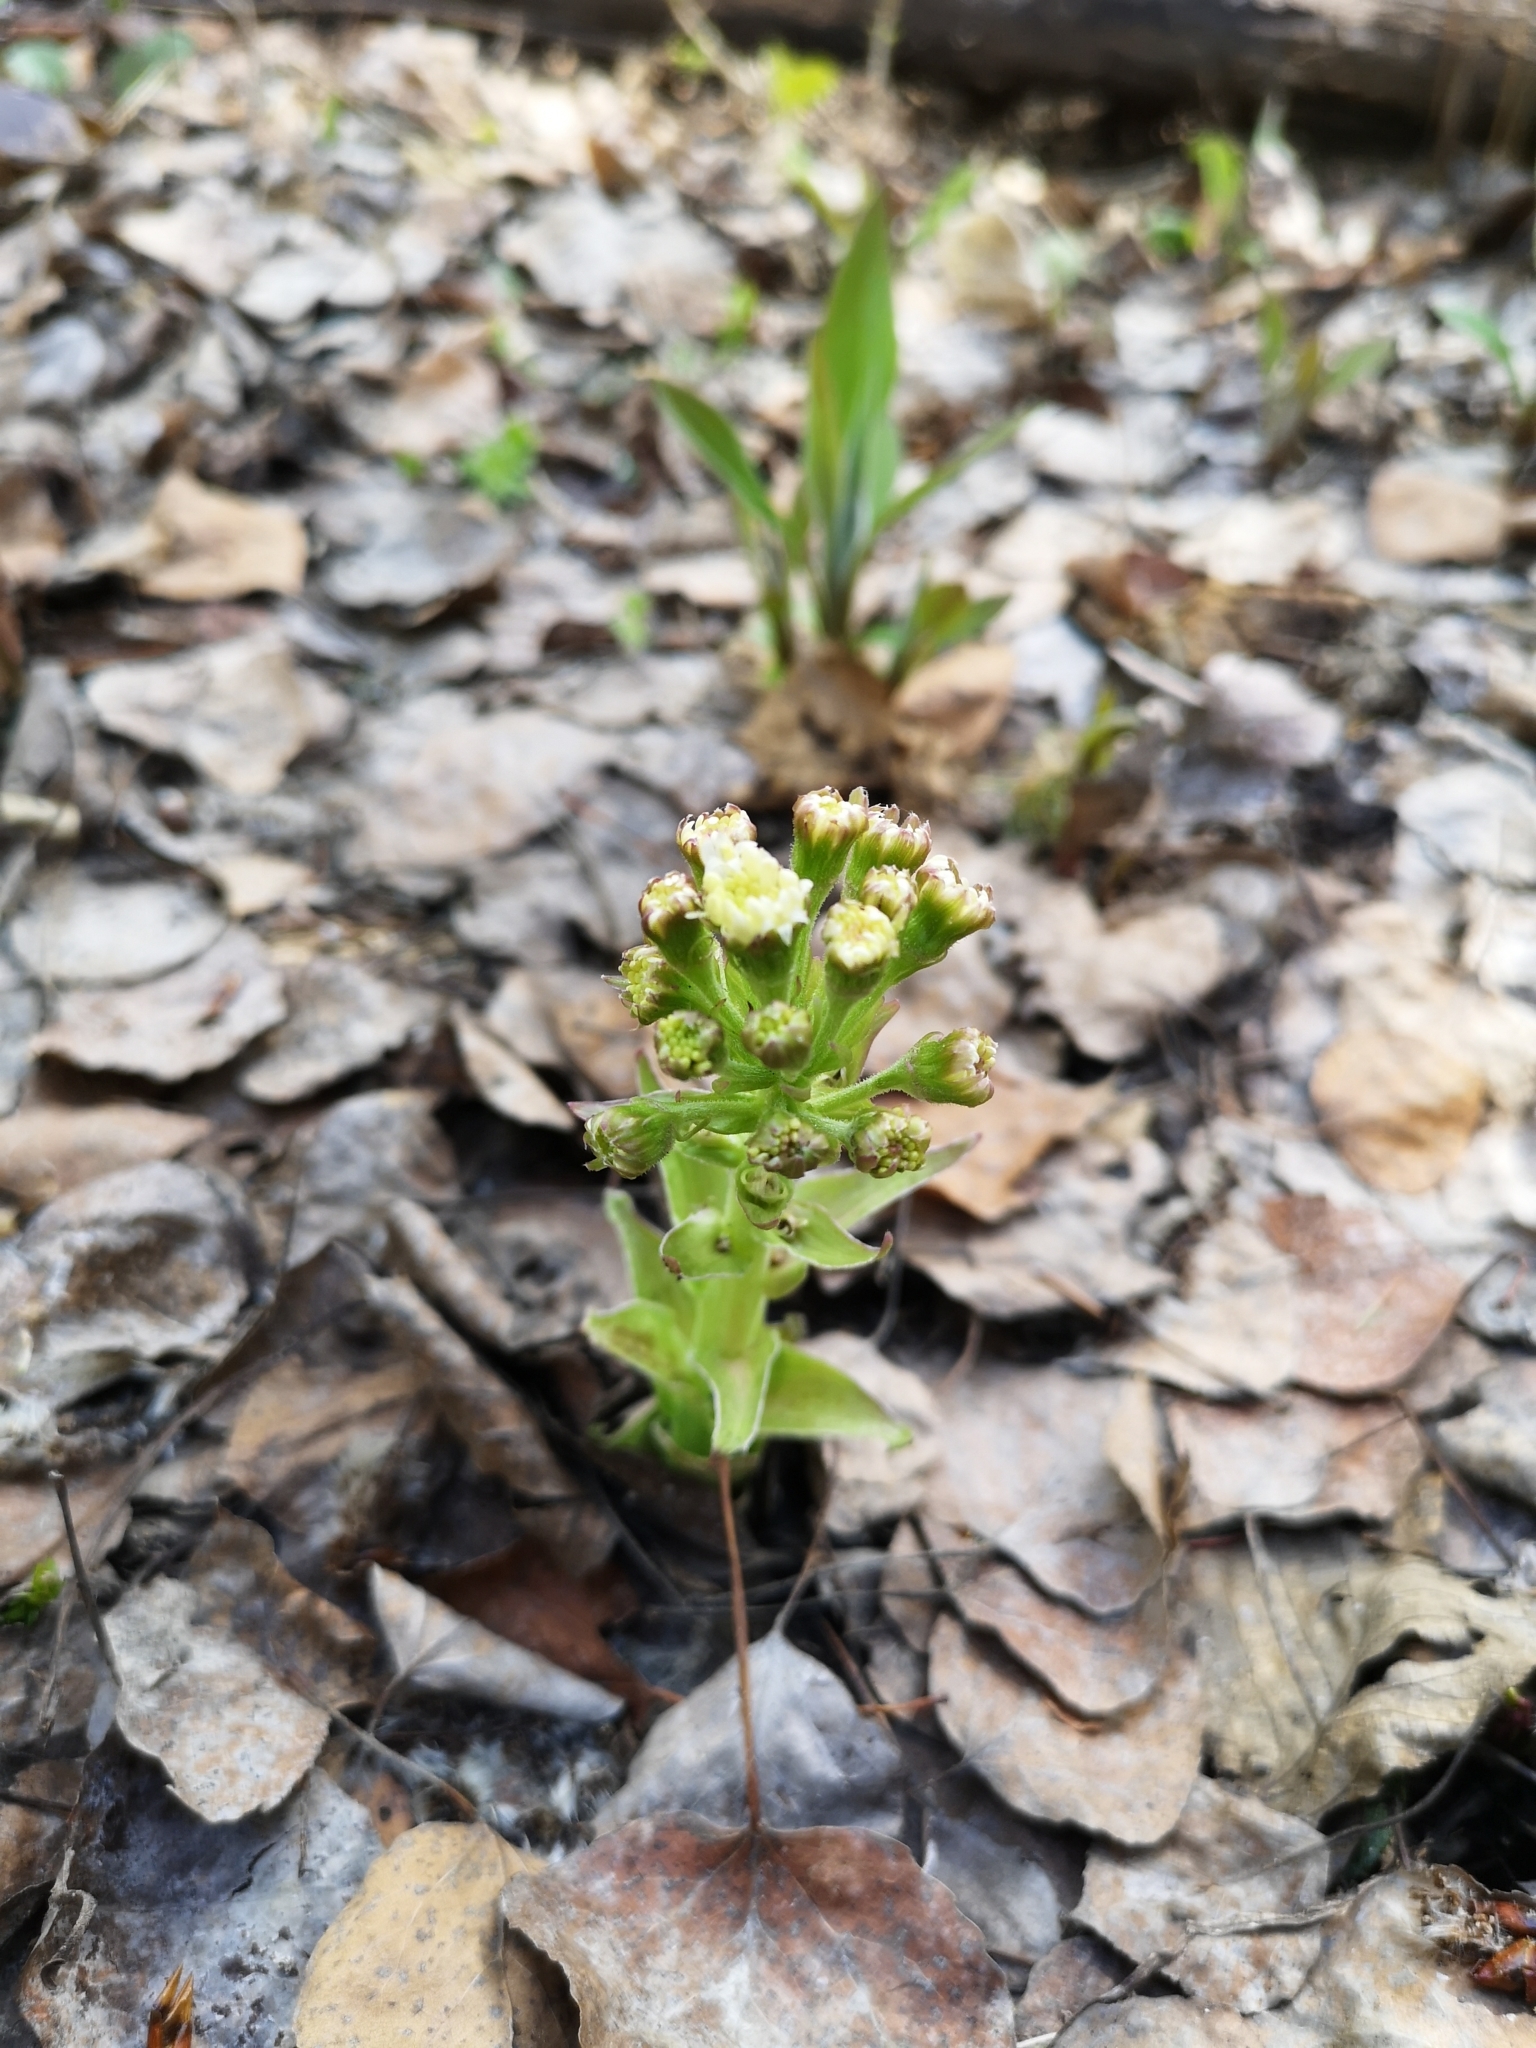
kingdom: Plantae
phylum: Tracheophyta
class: Magnoliopsida
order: Asterales
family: Asteraceae
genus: Petasites
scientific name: Petasites frigidus
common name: Arctic butterbur
